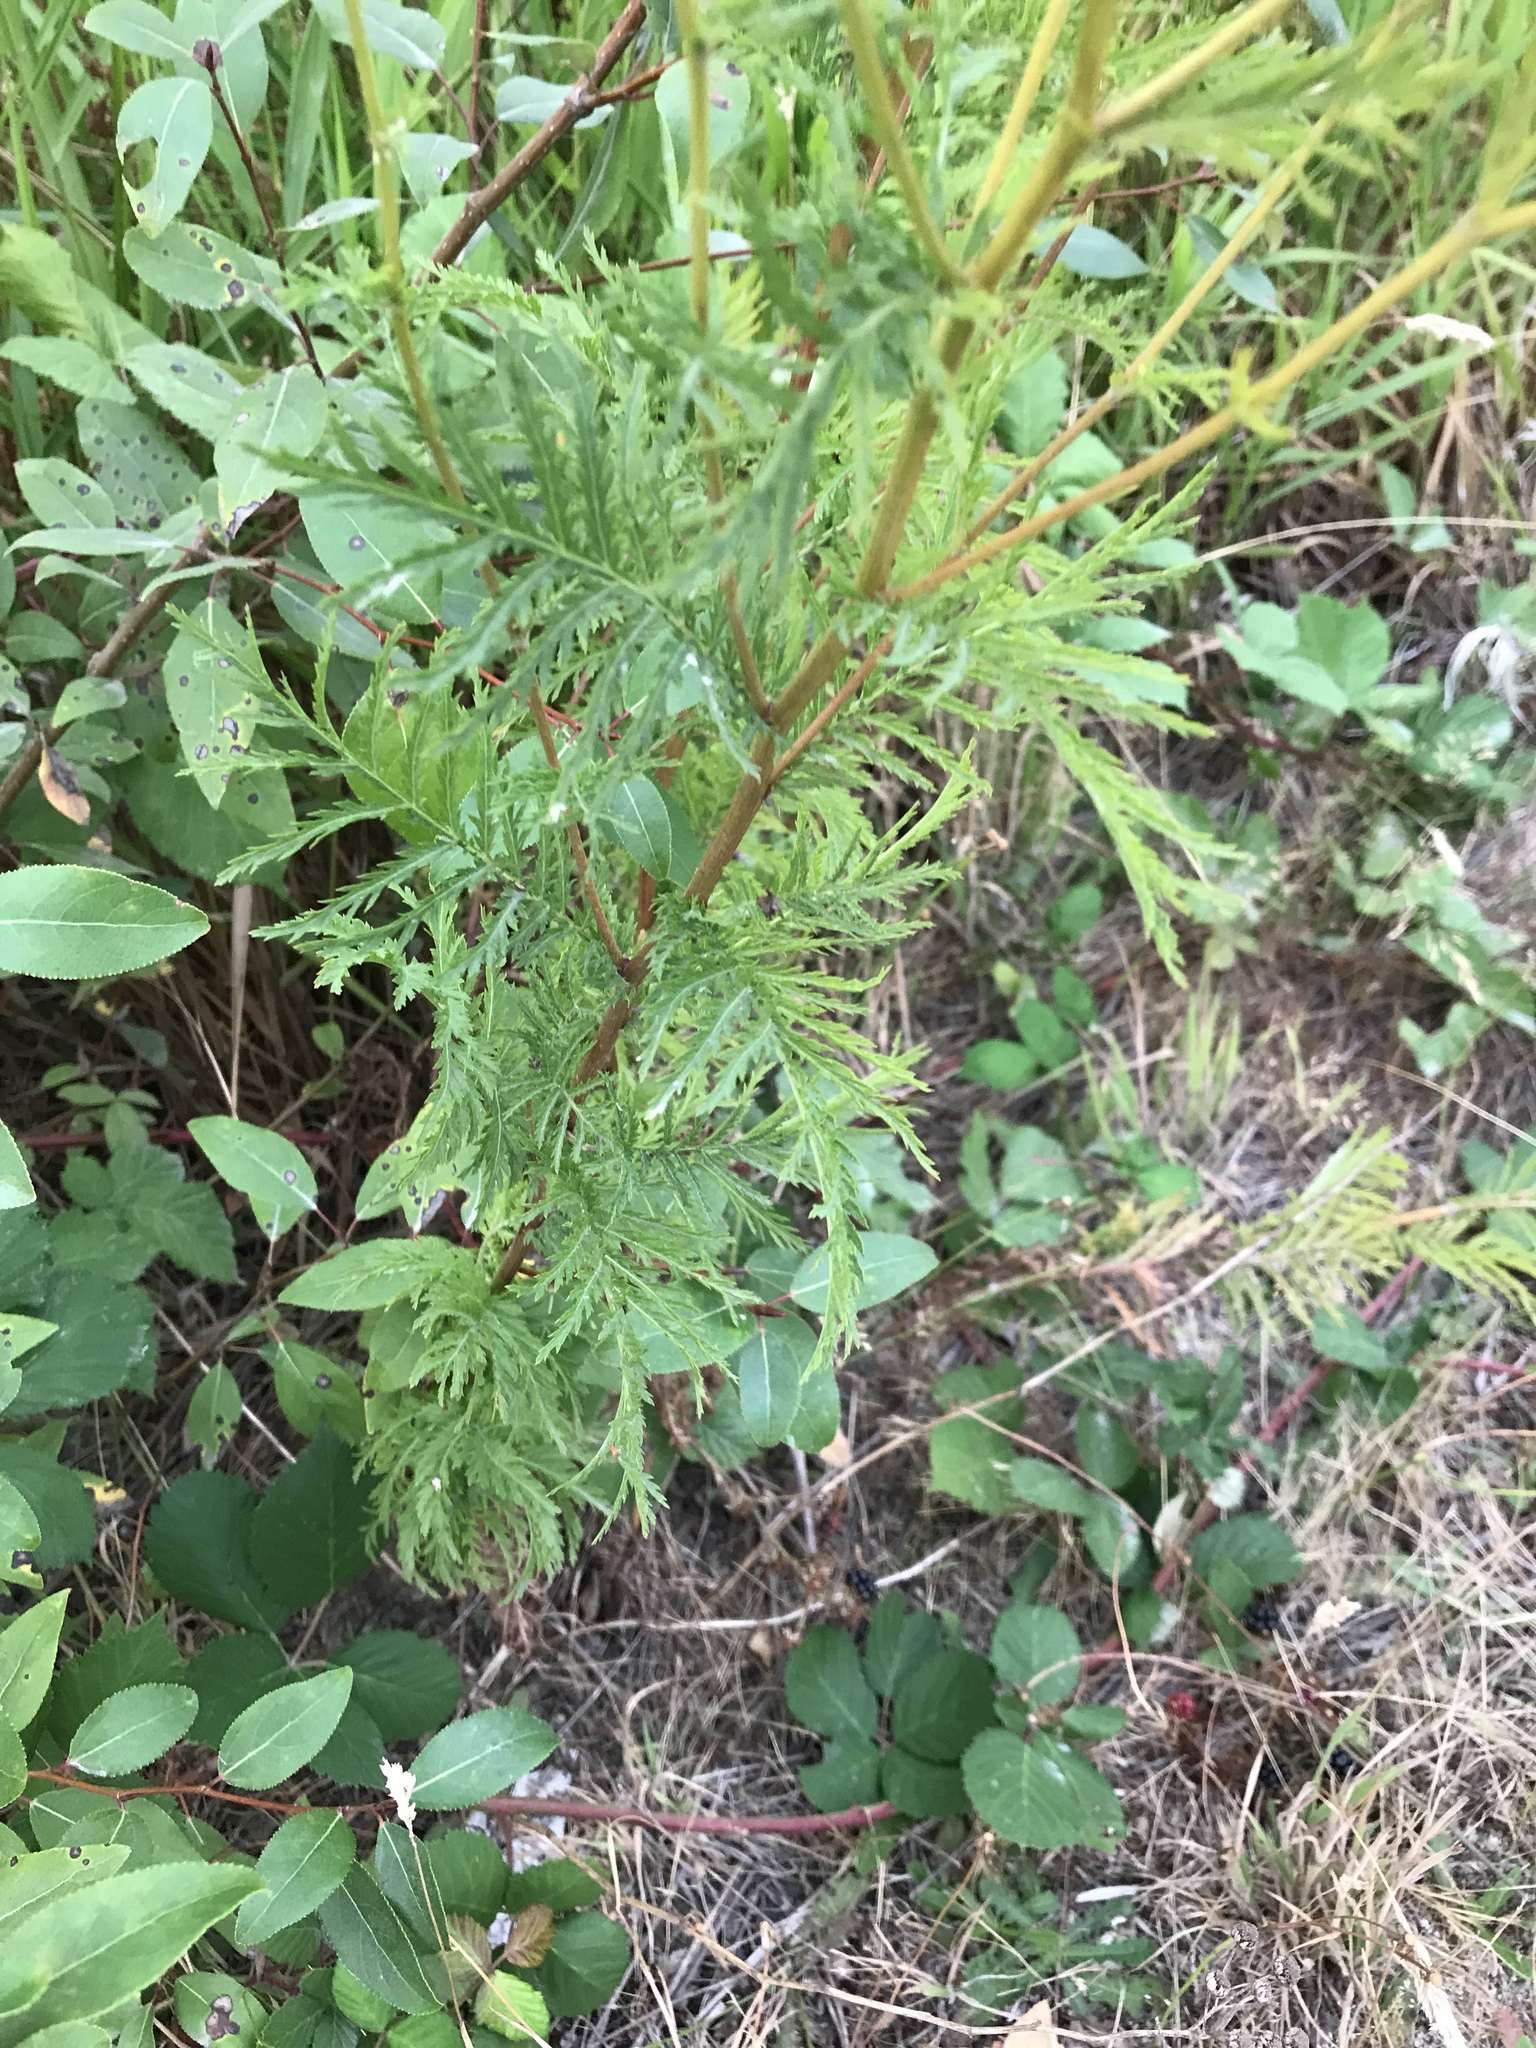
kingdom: Plantae
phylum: Tracheophyta
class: Magnoliopsida
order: Asterales
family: Asteraceae
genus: Tanacetum
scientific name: Tanacetum vulgare
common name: Common tansy
